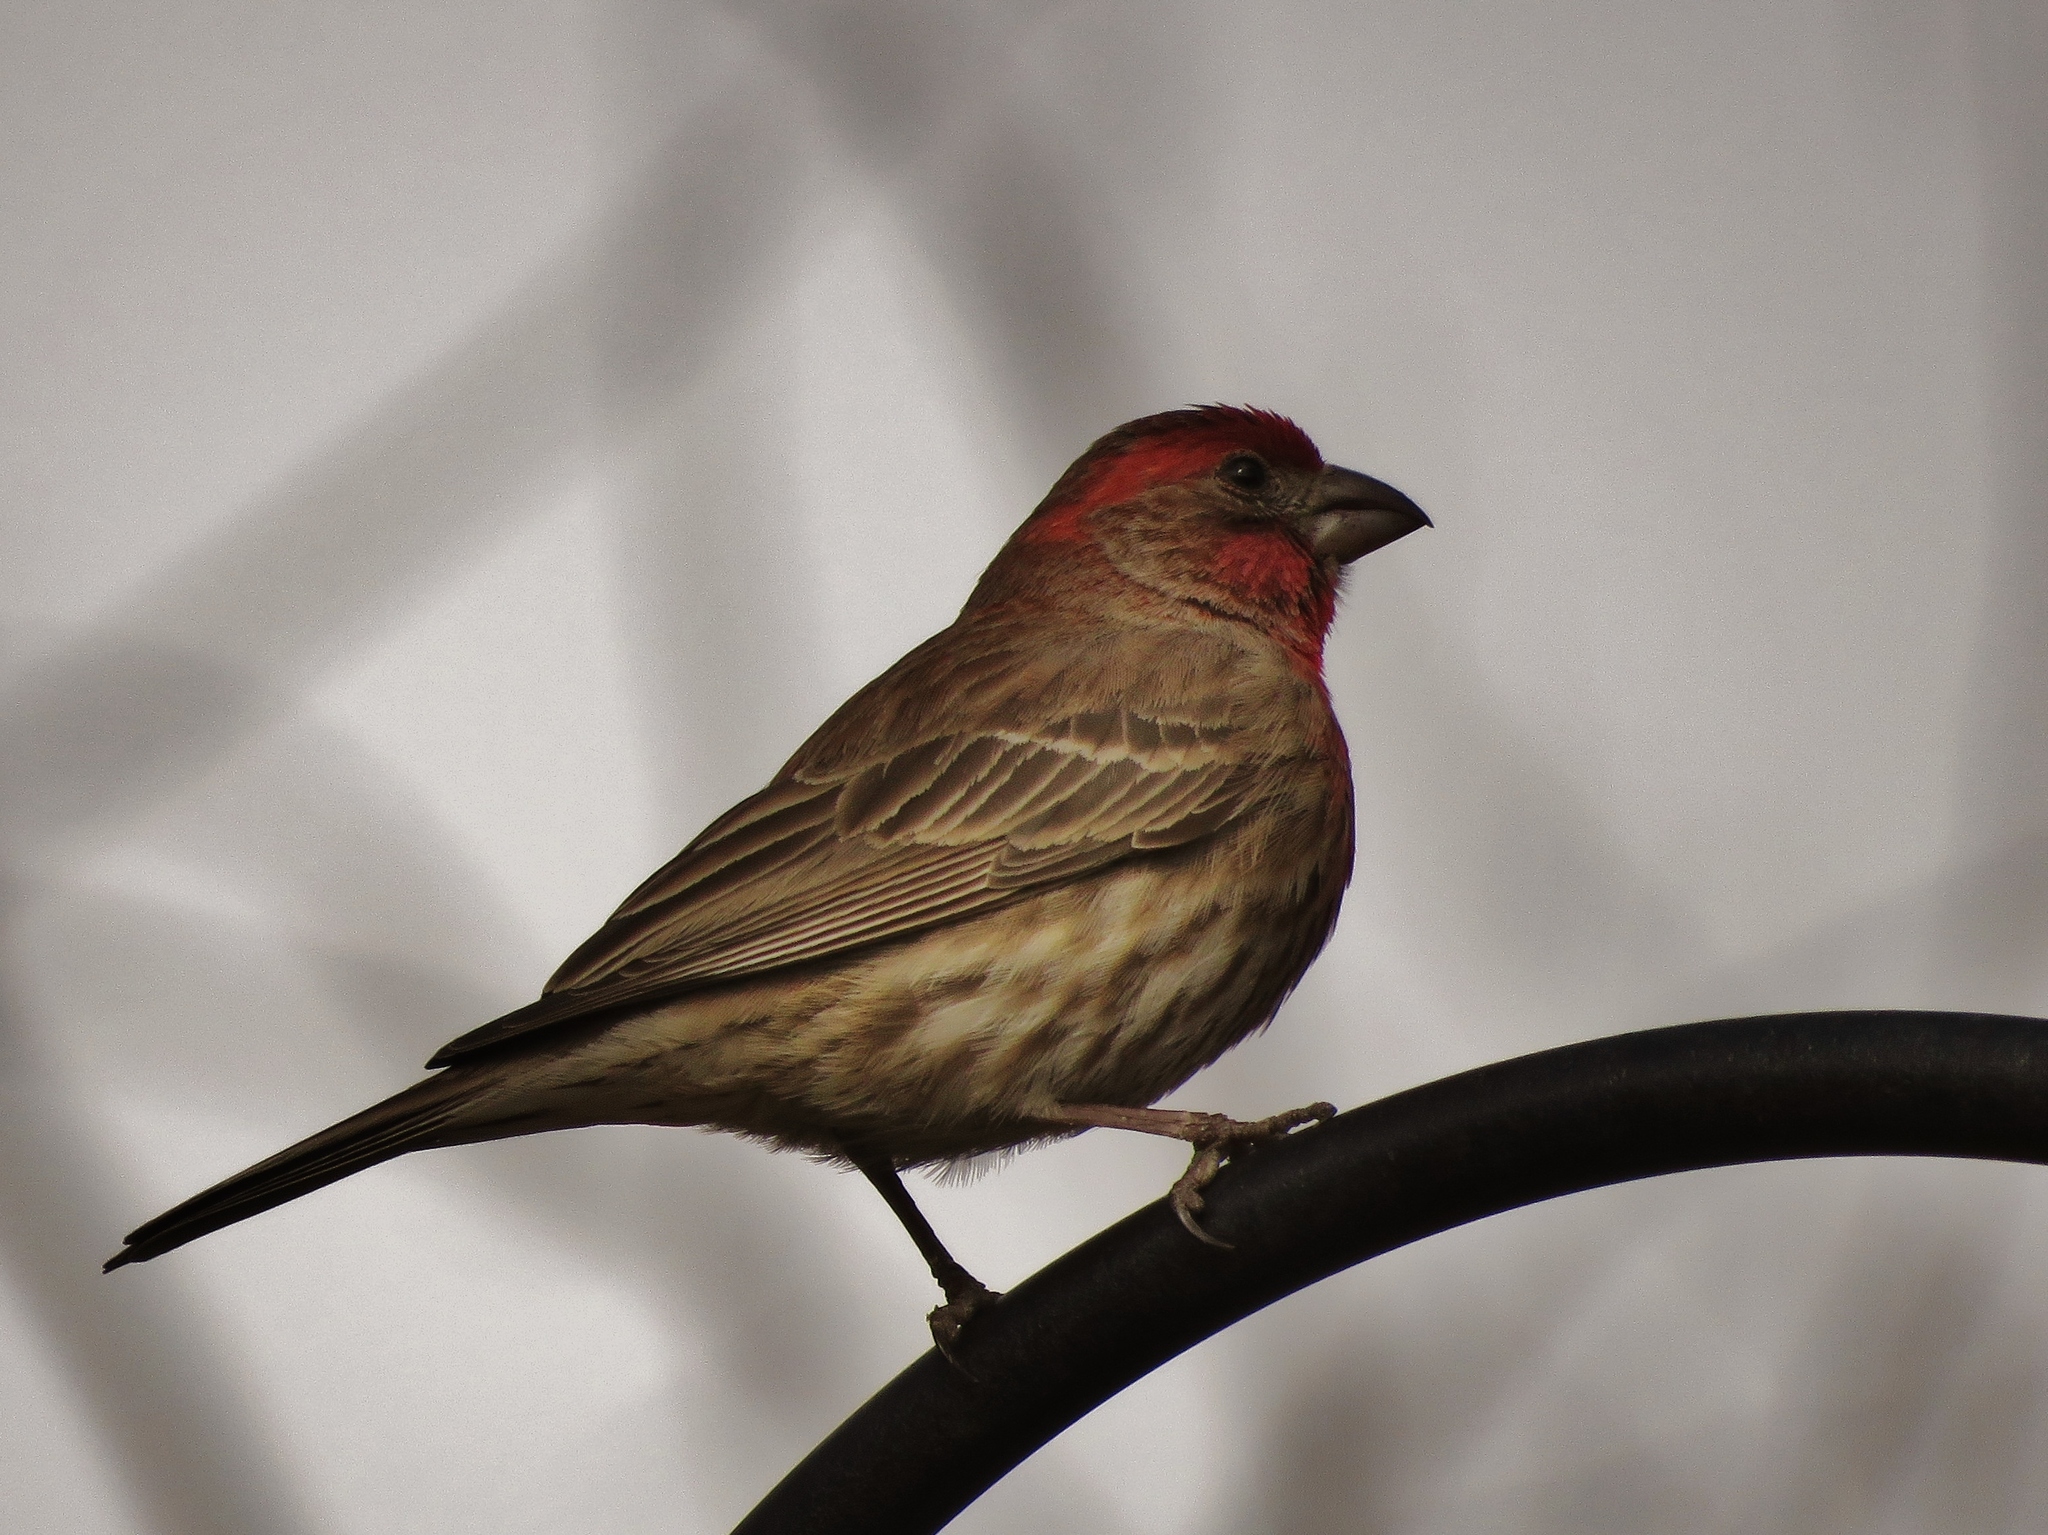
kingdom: Animalia
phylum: Chordata
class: Aves
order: Passeriformes
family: Fringillidae
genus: Haemorhous
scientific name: Haemorhous mexicanus
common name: House finch
